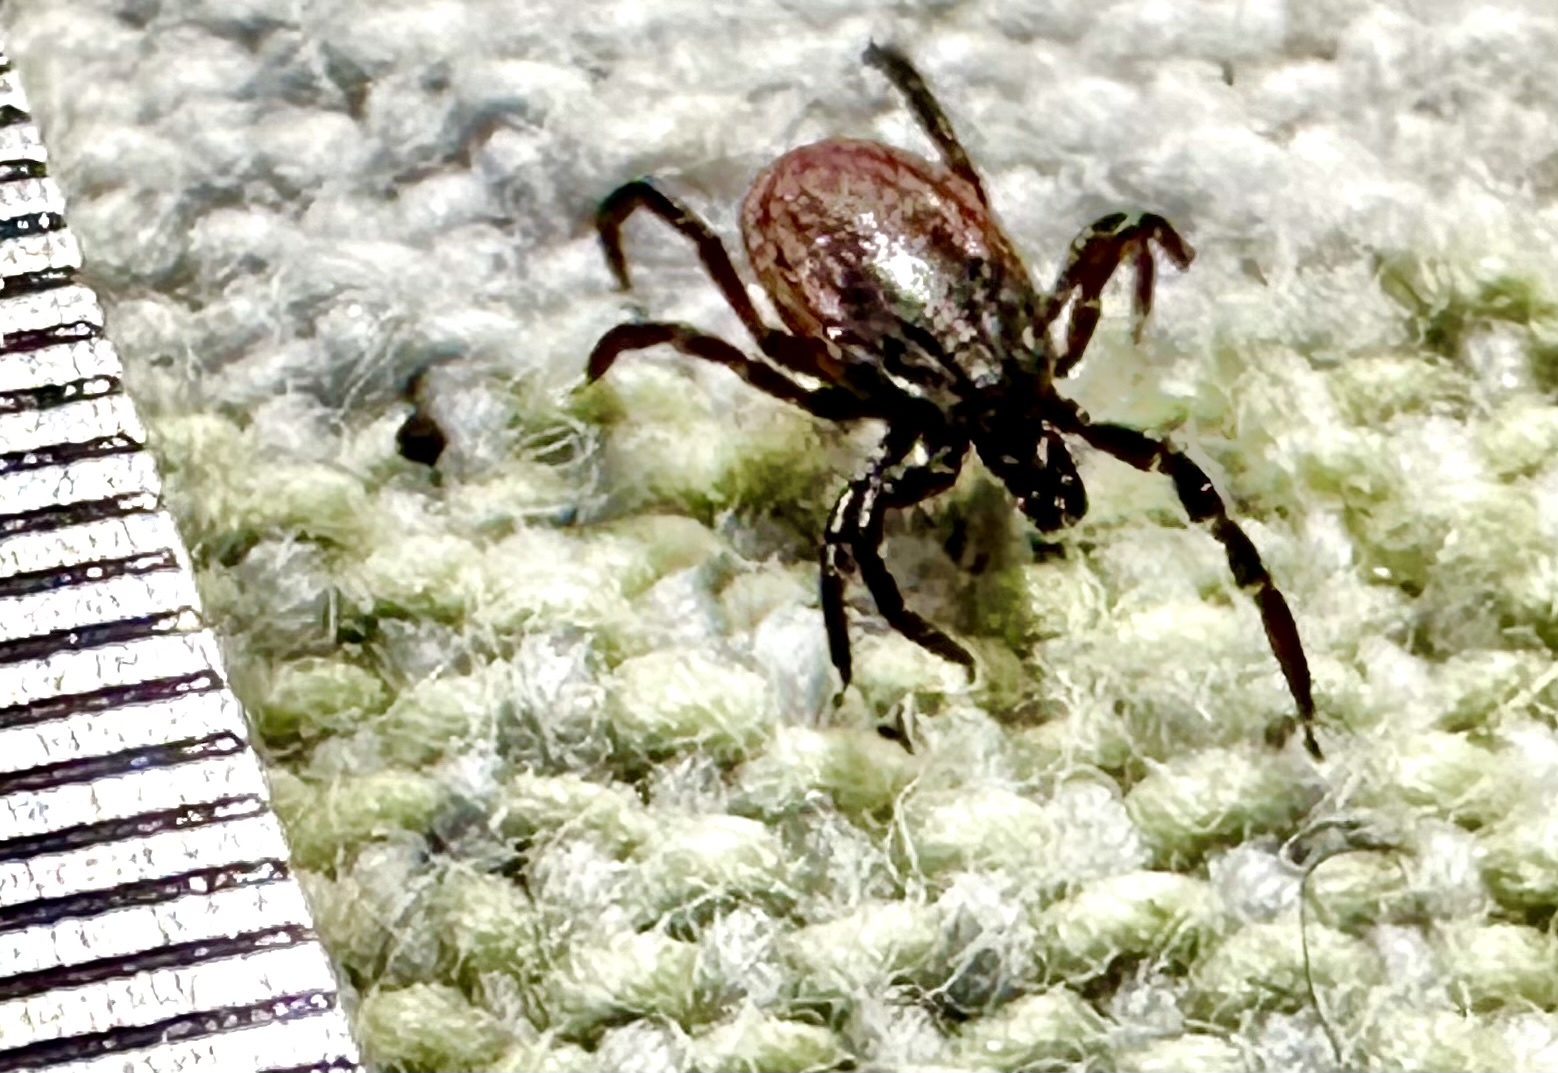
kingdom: Animalia
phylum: Arthropoda
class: Arachnida
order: Ixodida
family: Ixodidae
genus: Ixodes
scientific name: Ixodes pacificus
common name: California black-legged tick
